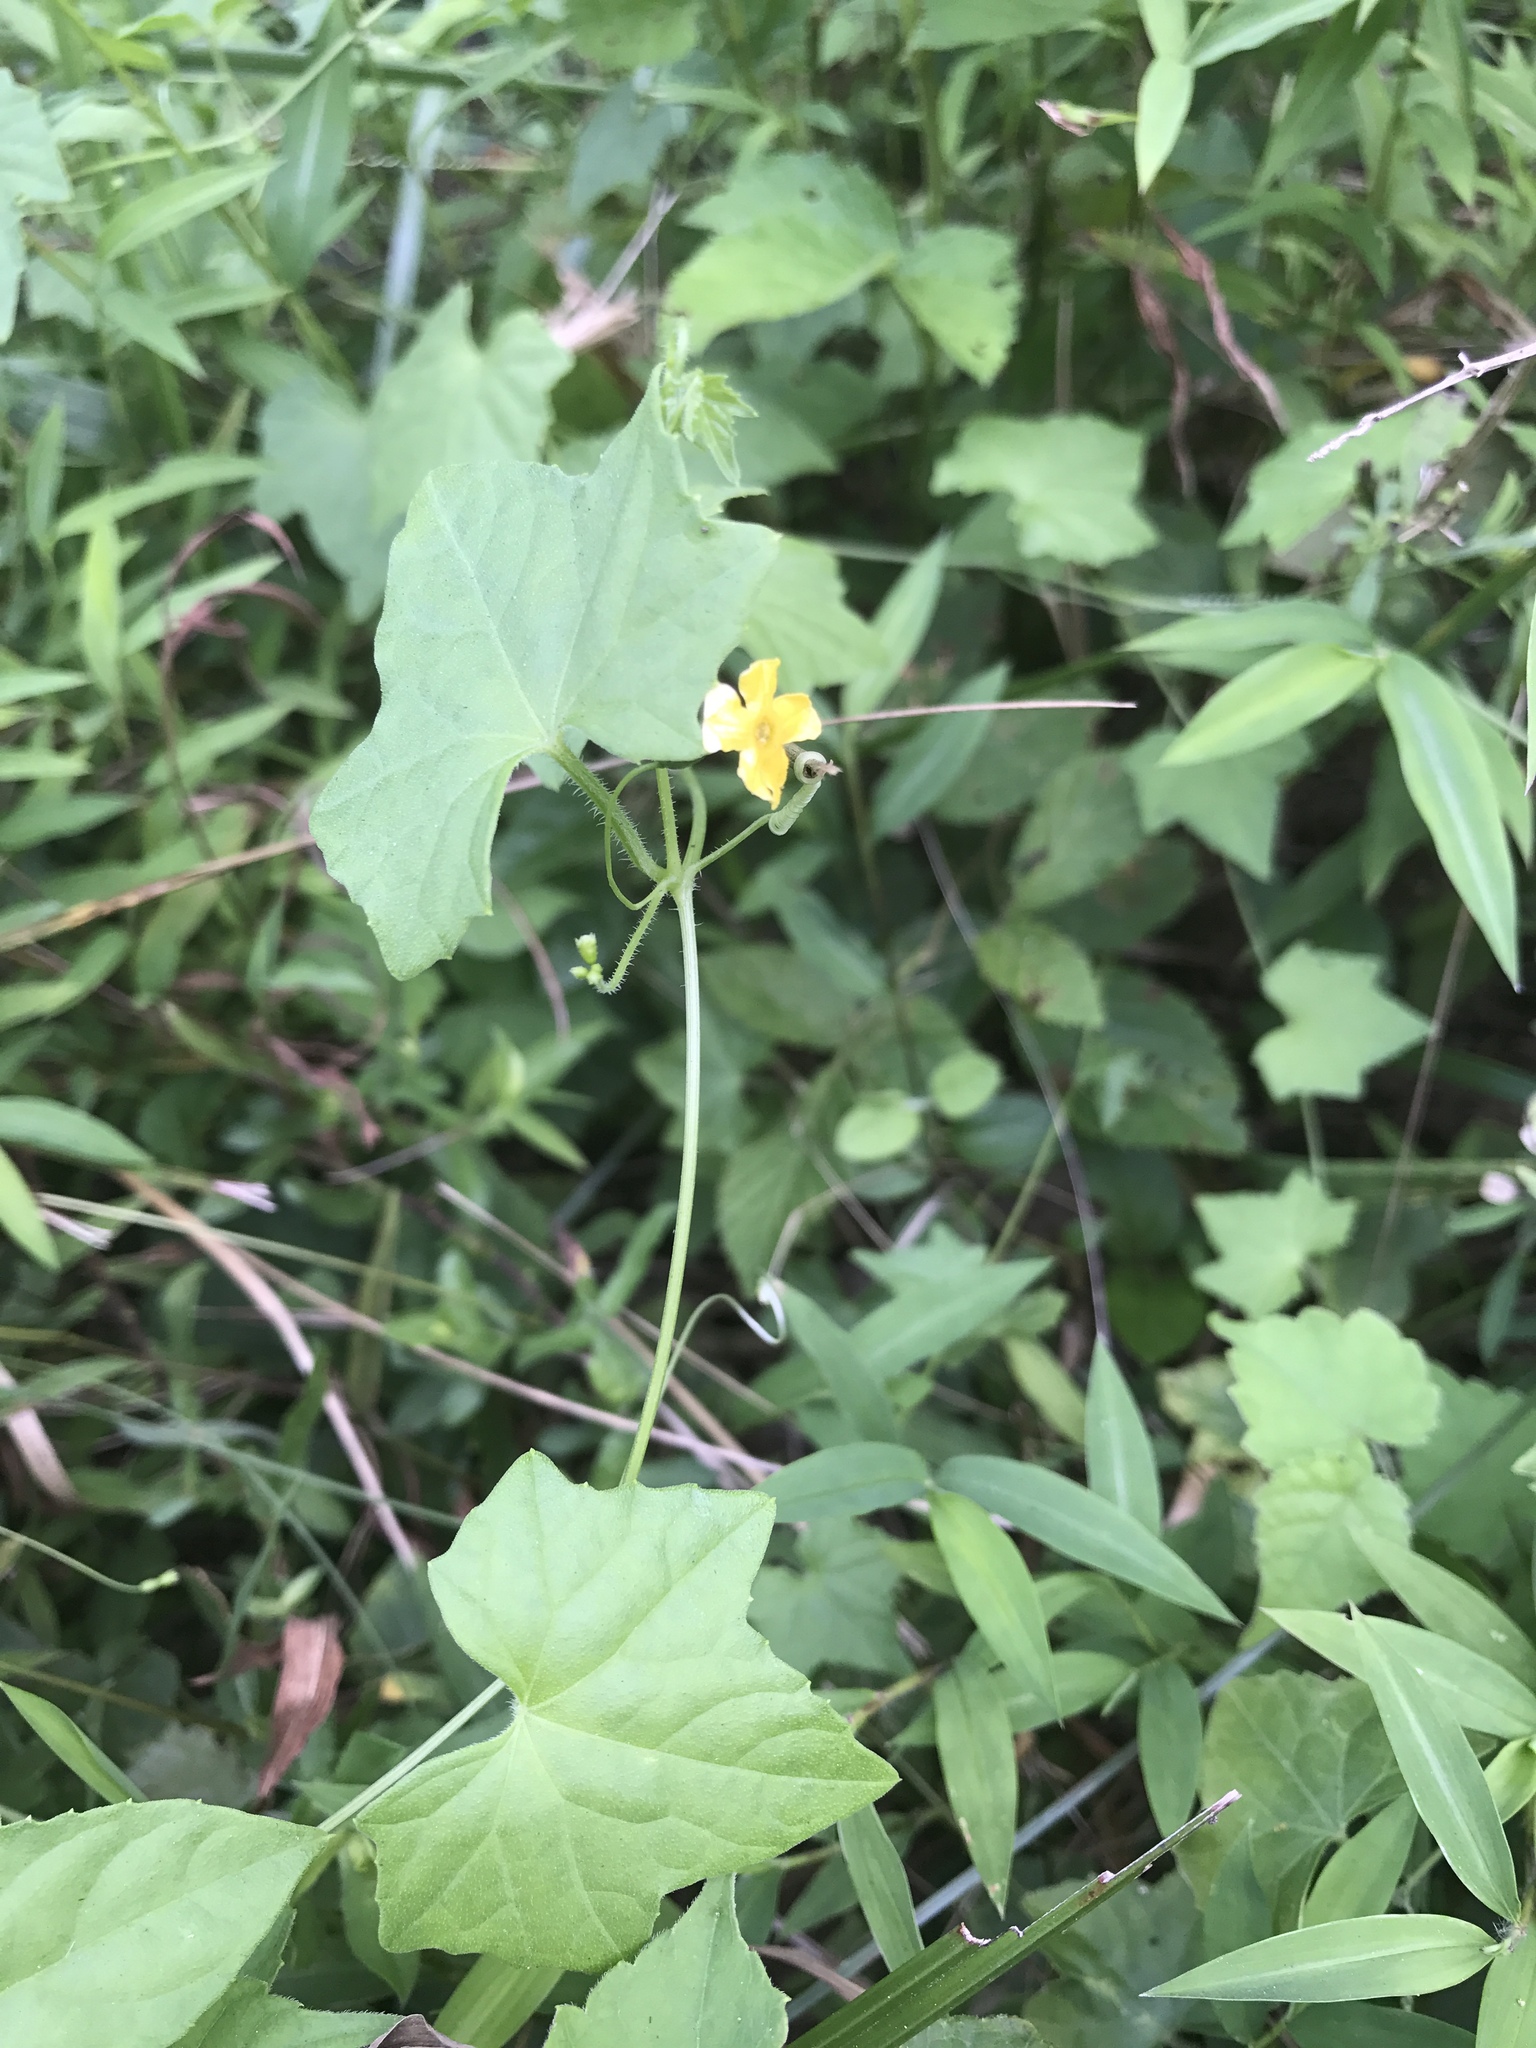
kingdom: Plantae
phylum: Tracheophyta
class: Magnoliopsida
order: Cucurbitales
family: Cucurbitaceae
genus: Melothria
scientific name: Melothria pendula
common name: Creeping-cucumber
